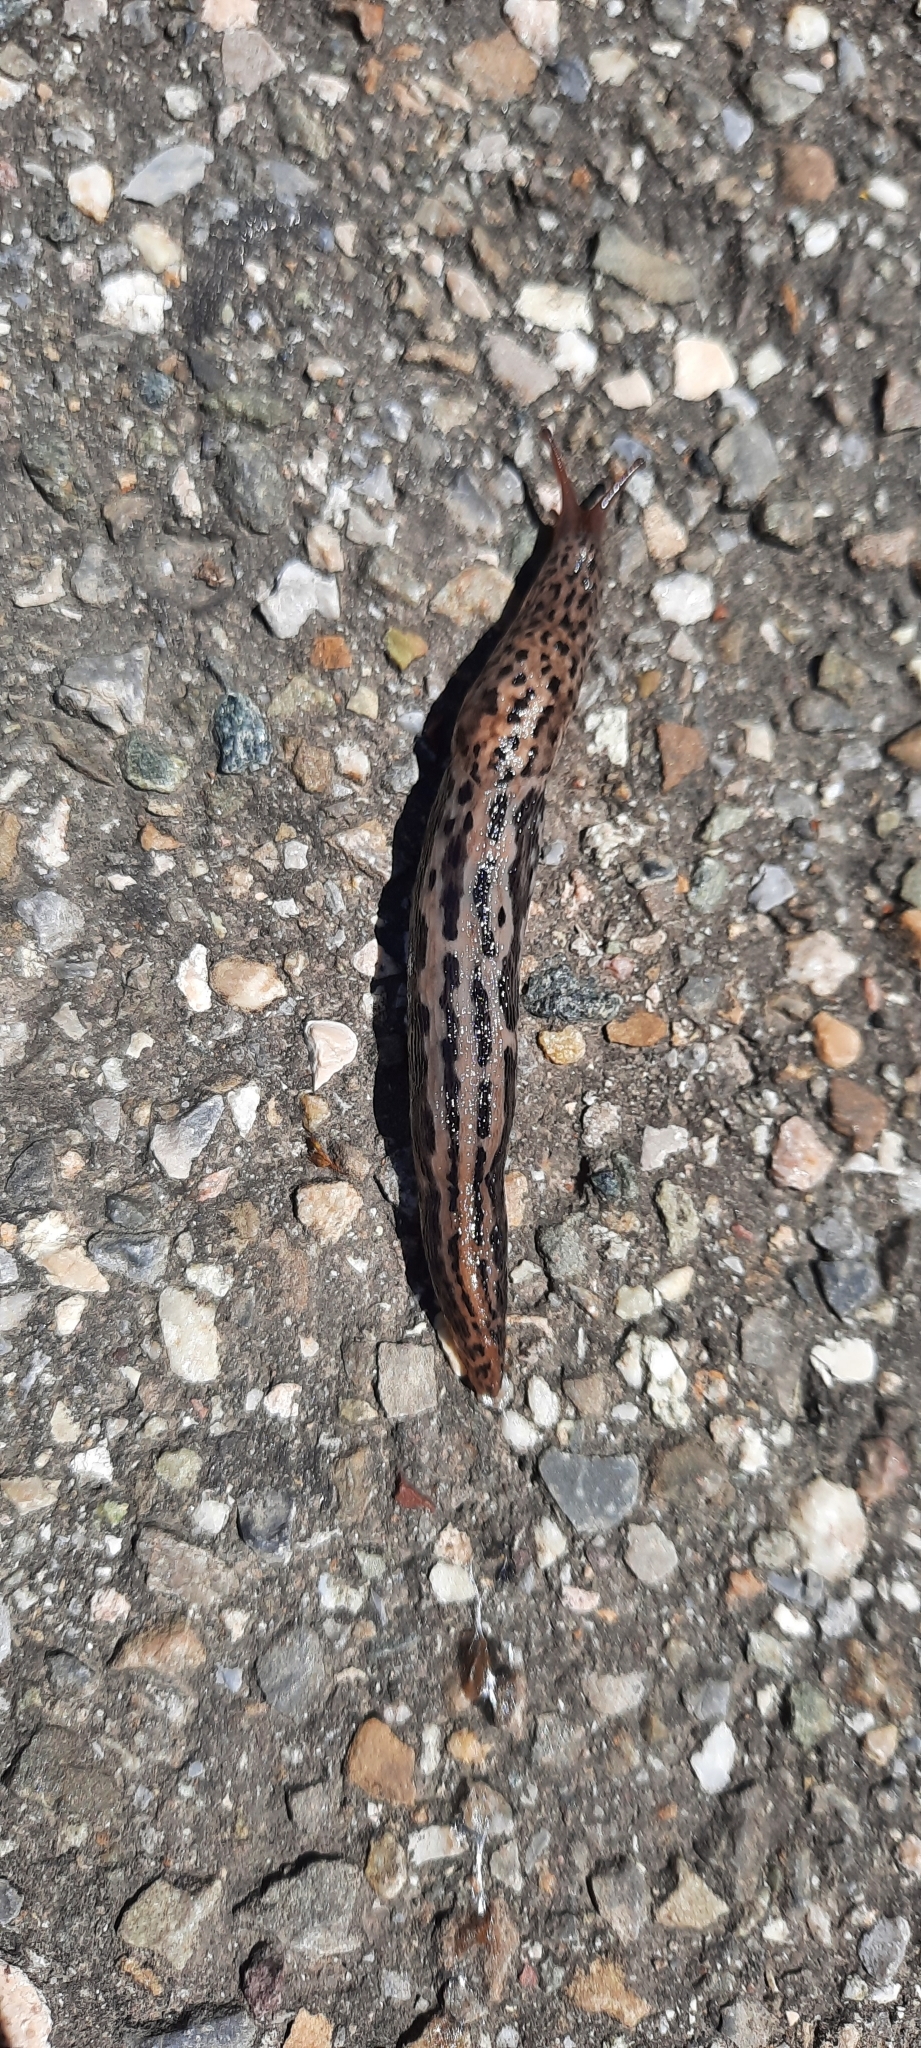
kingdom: Animalia
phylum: Mollusca
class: Gastropoda
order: Stylommatophora
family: Limacidae
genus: Limax
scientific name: Limax maximus
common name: Great grey slug
